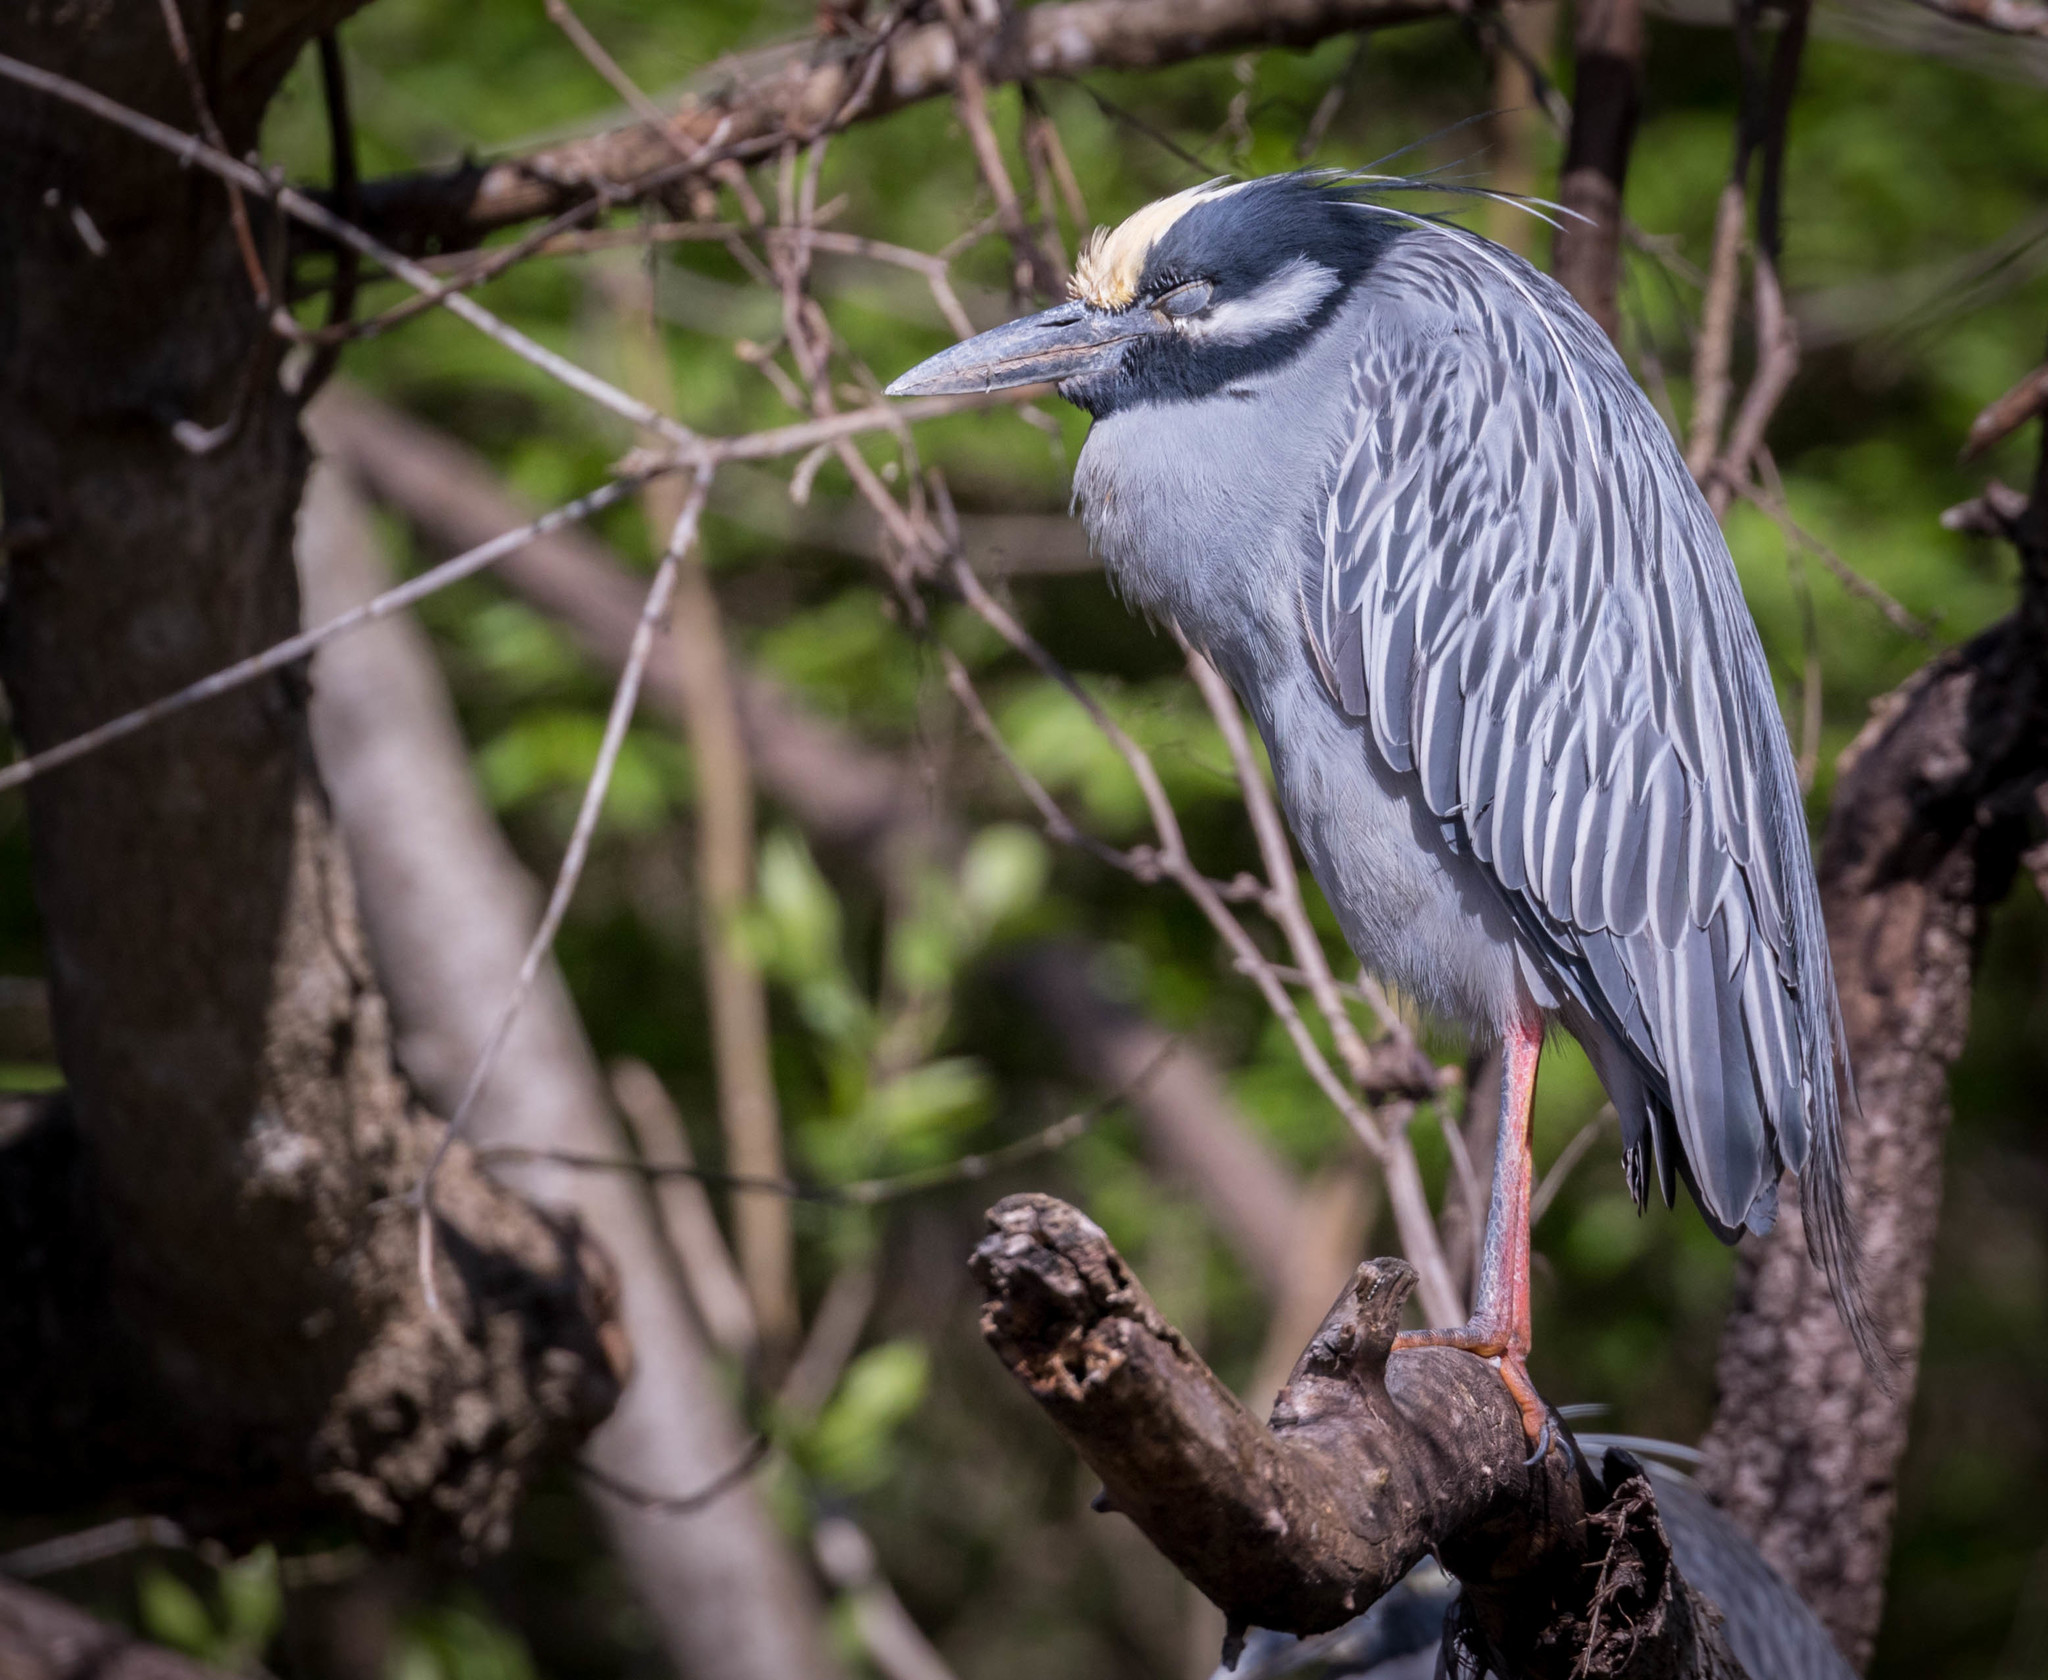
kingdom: Animalia
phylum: Chordata
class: Aves
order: Pelecaniformes
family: Ardeidae
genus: Nyctanassa
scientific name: Nyctanassa violacea
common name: Yellow-crowned night heron
